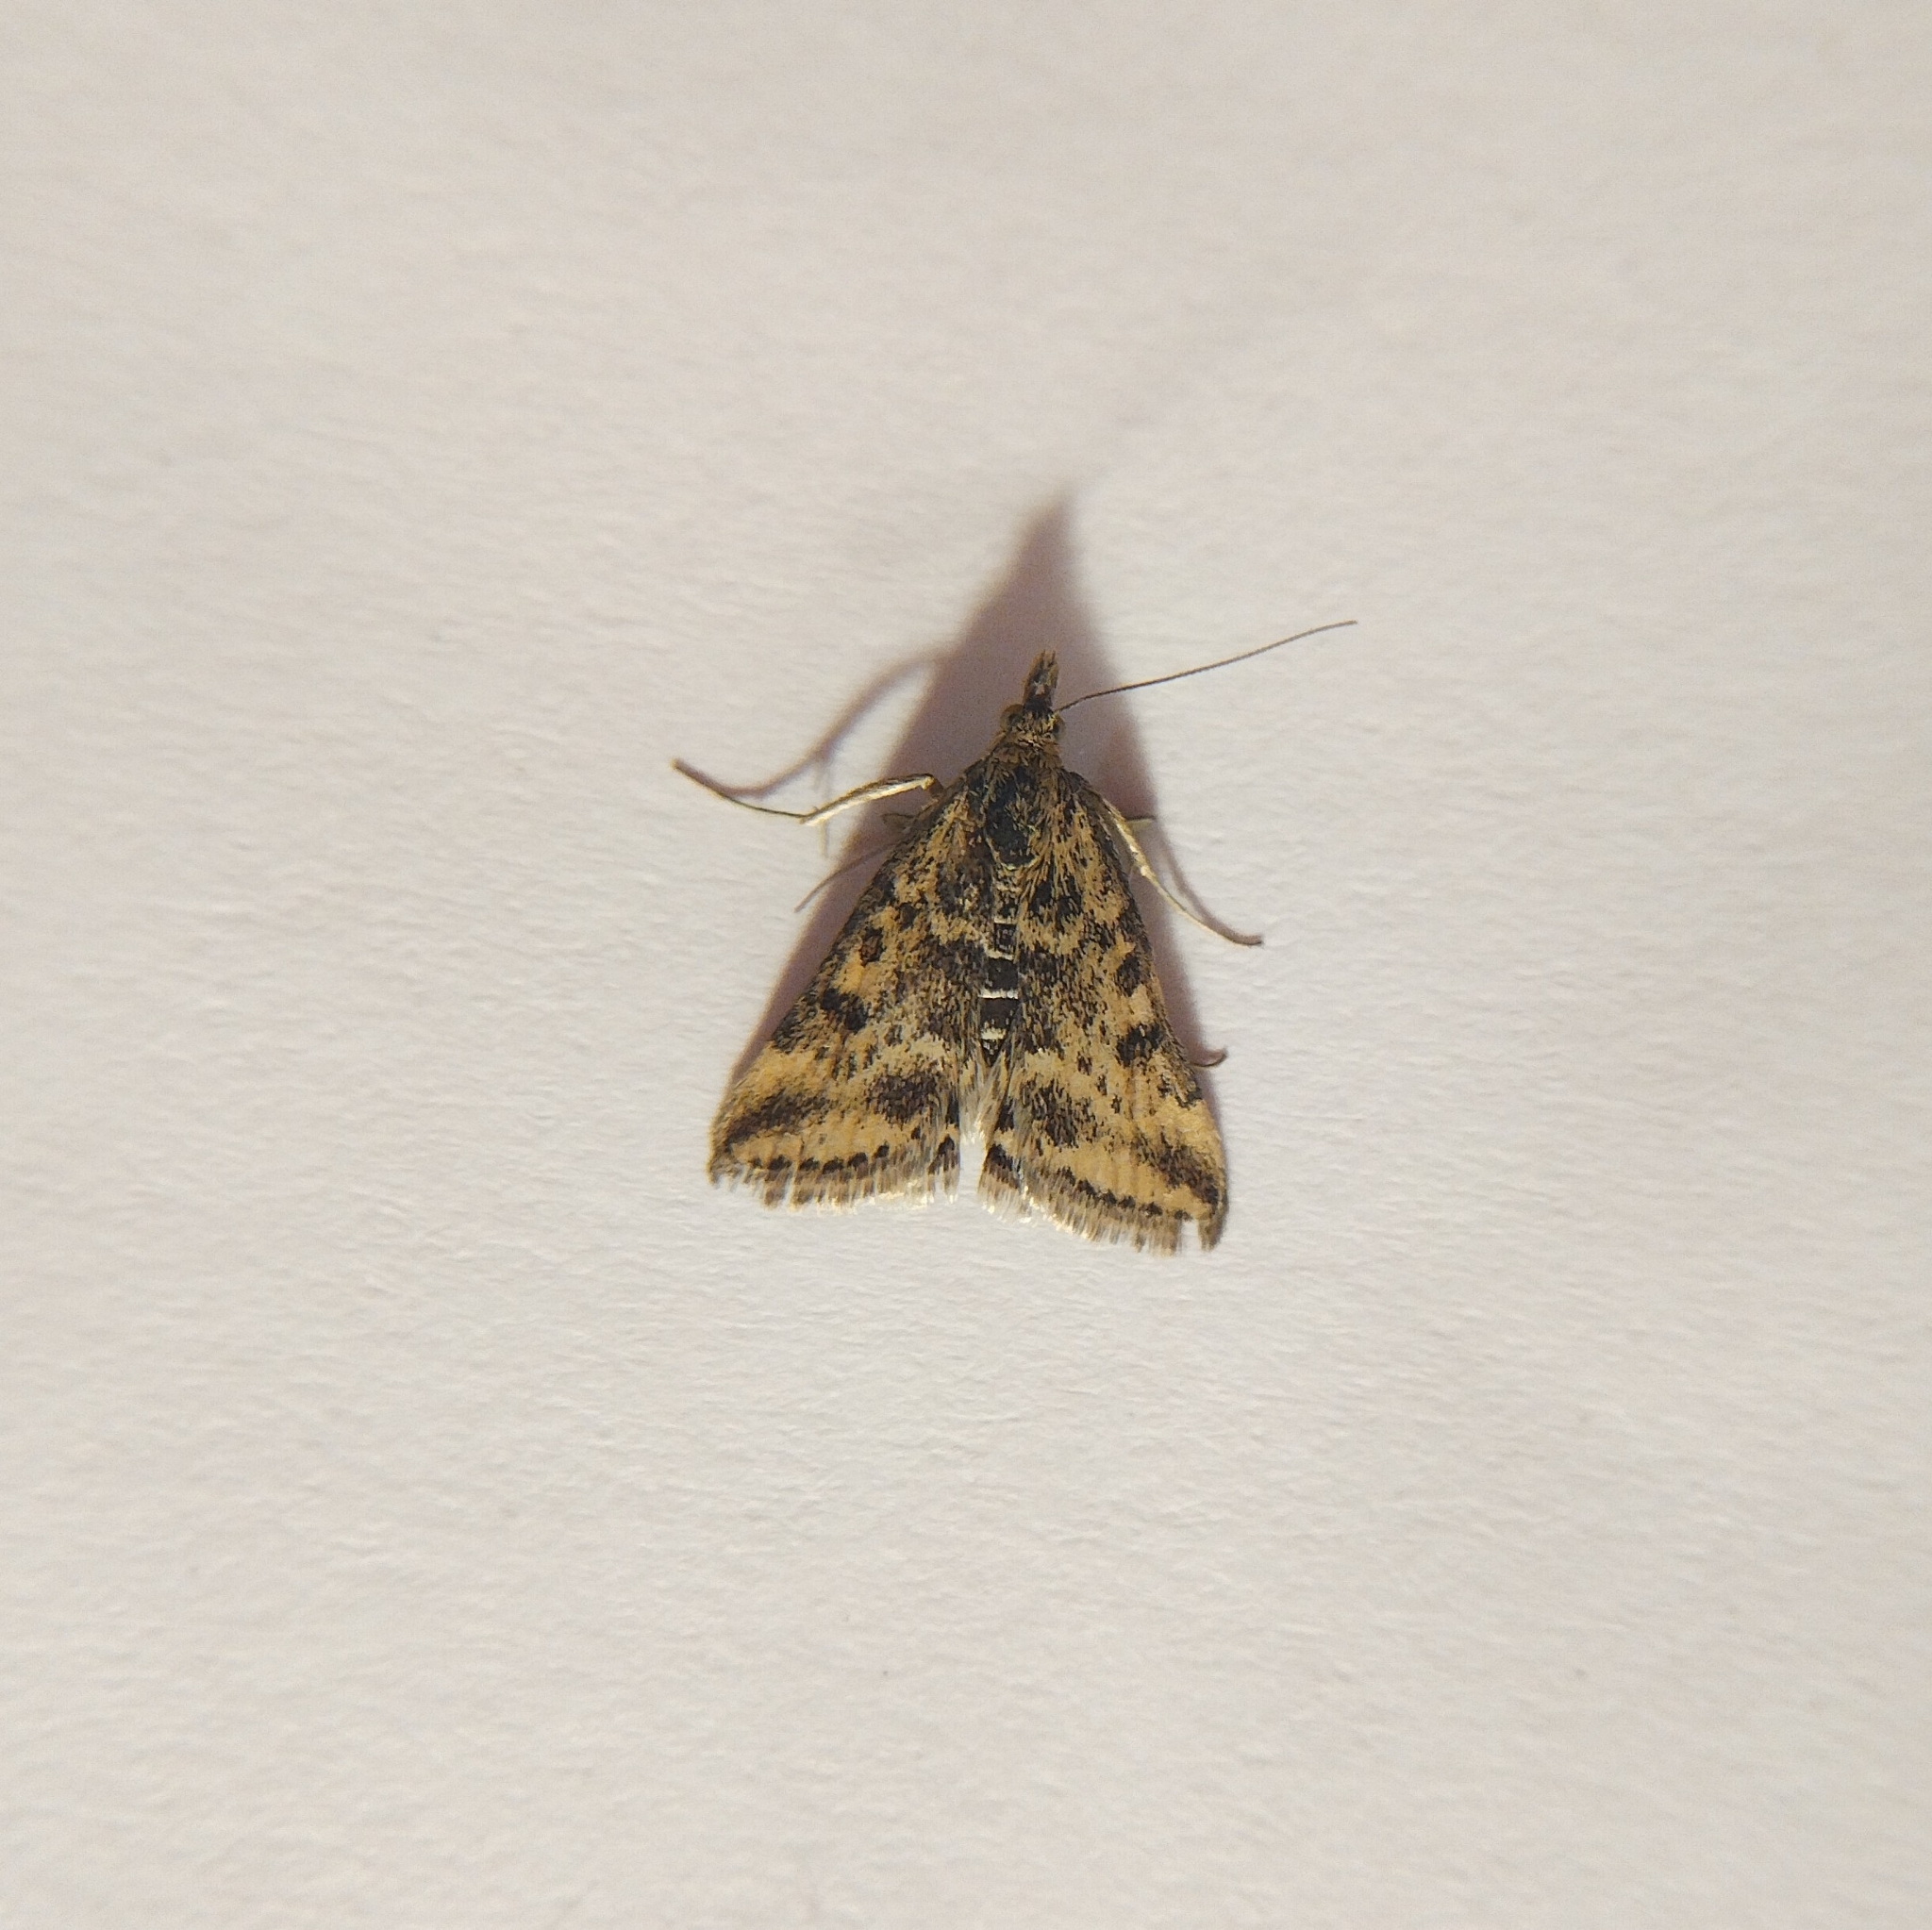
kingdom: Animalia
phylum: Arthropoda
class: Insecta
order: Lepidoptera
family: Crambidae
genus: Pyrausta
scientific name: Pyrausta despicata
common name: Straw-barred pearl
